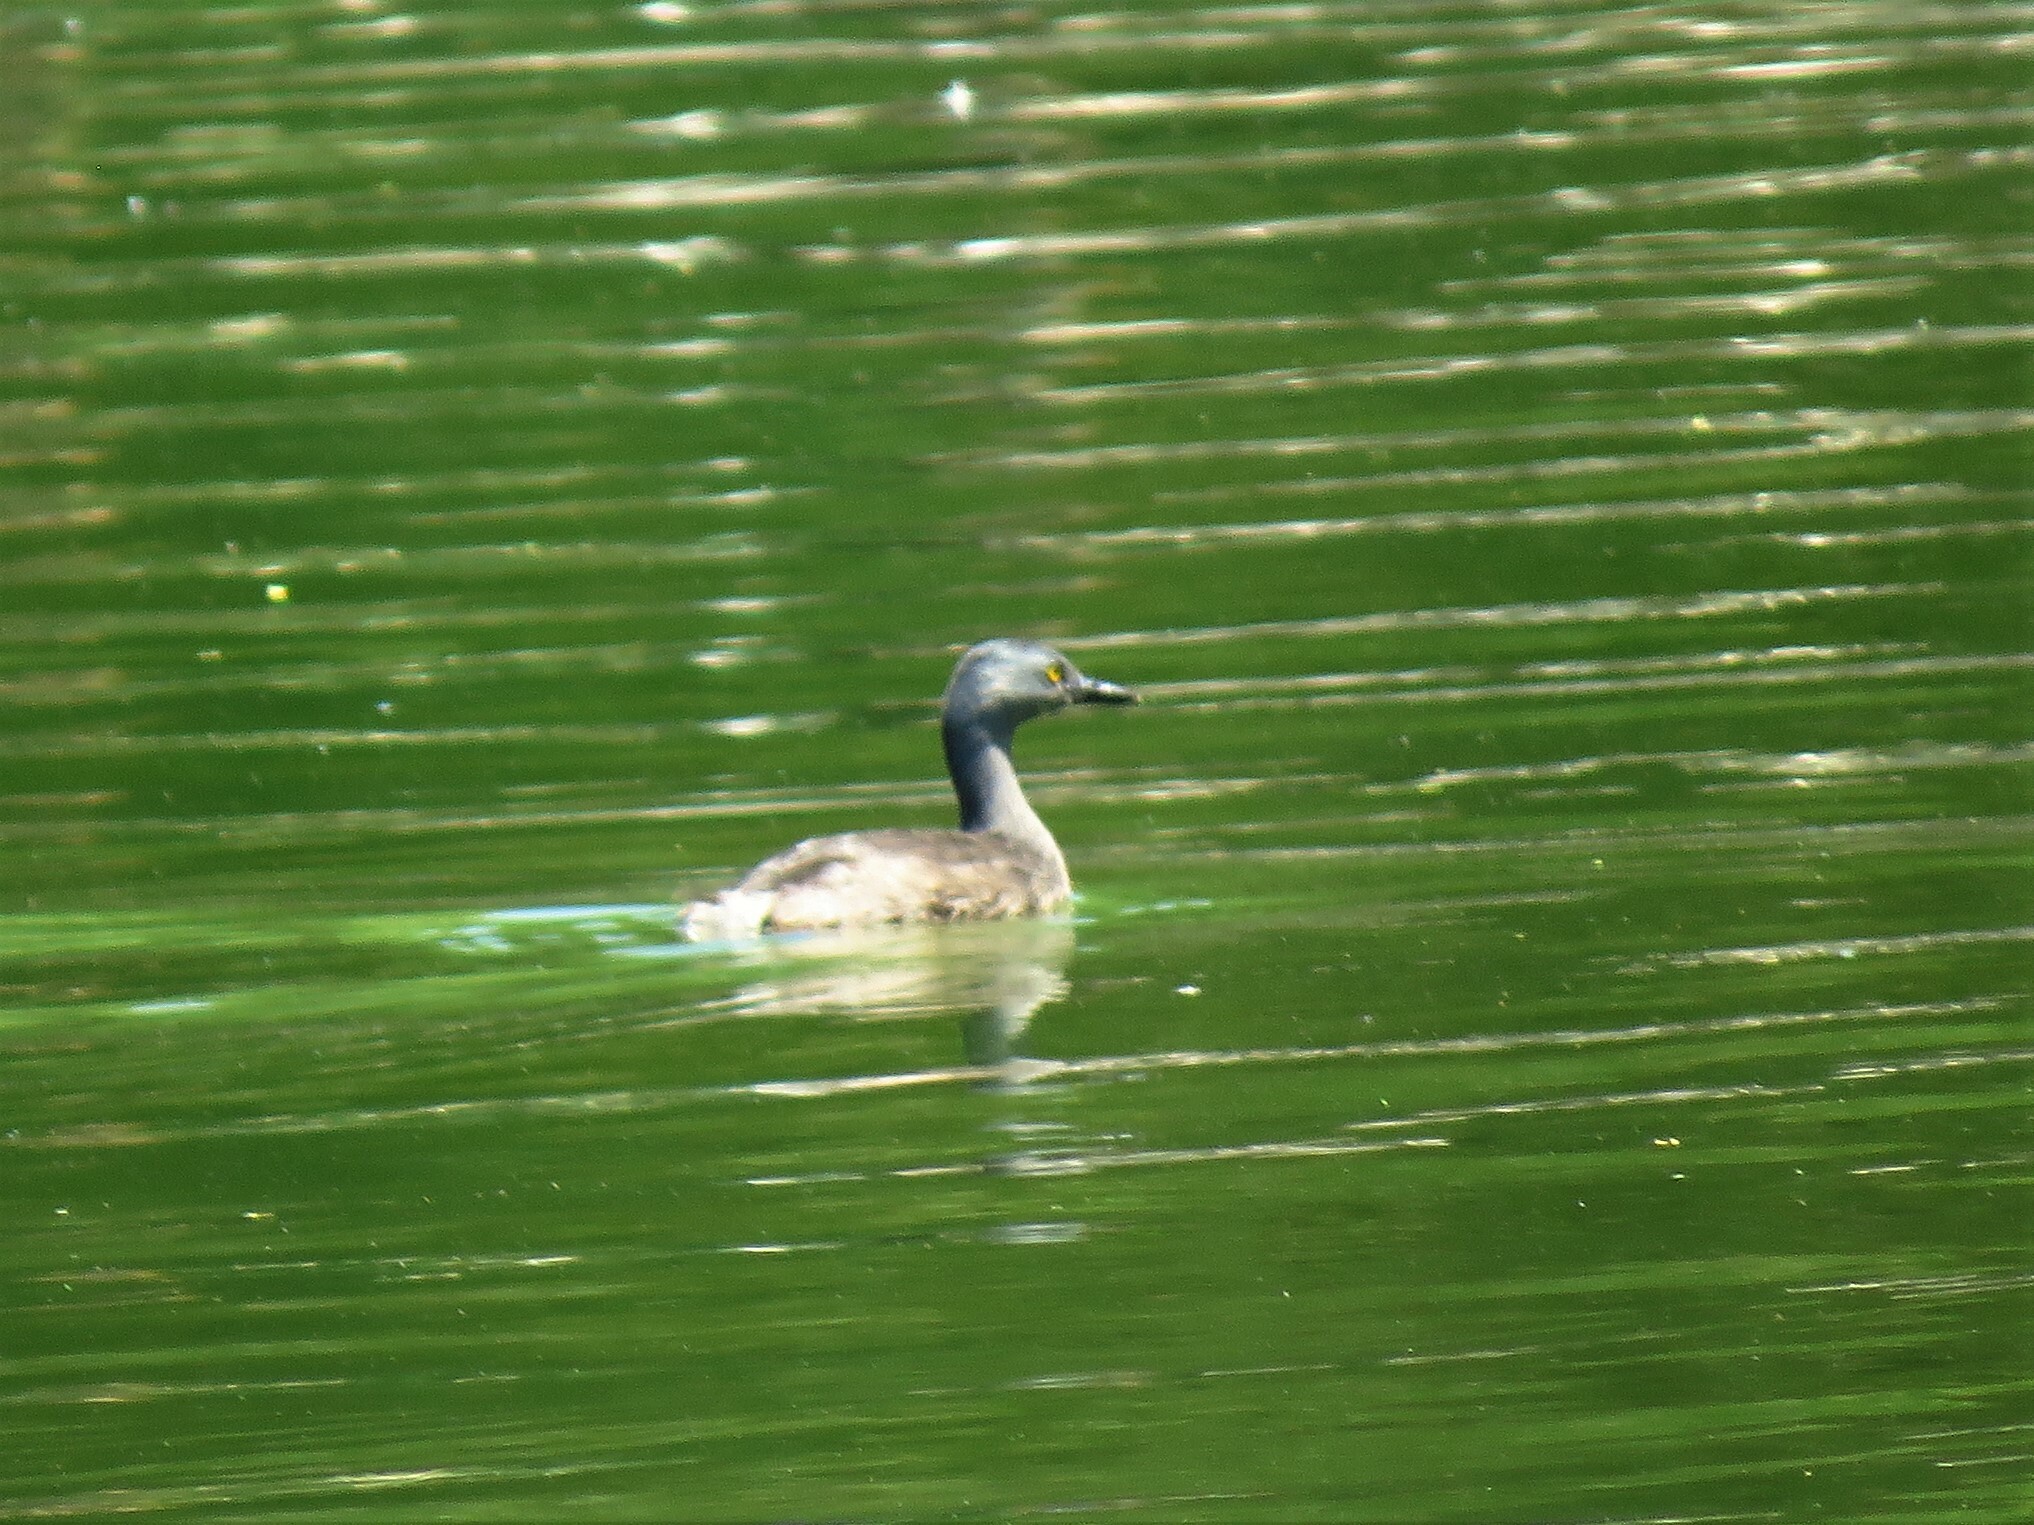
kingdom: Animalia
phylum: Chordata
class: Aves
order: Podicipediformes
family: Podicipedidae
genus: Tachybaptus
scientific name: Tachybaptus dominicus
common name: Least grebe
